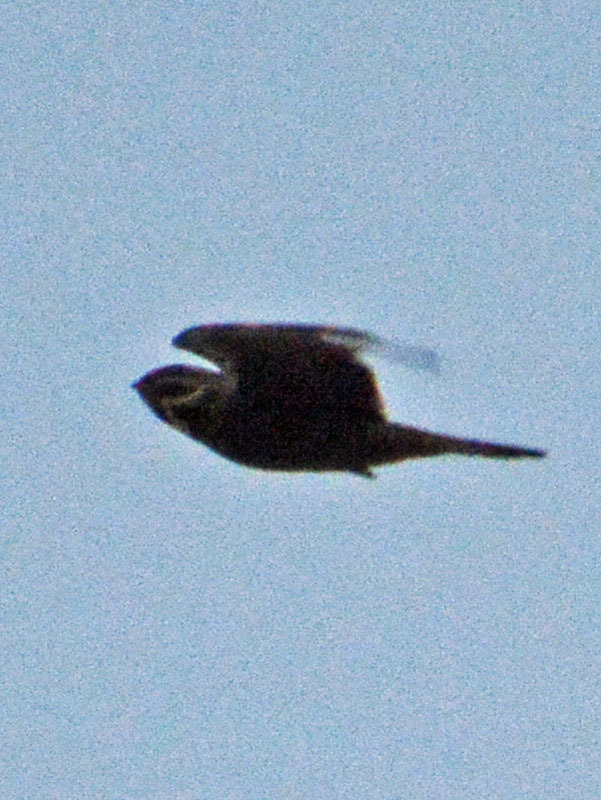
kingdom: Animalia
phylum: Chordata
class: Aves
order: Caprimulgiformes
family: Caprimulgidae
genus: Chordeiles
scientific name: Chordeiles acutipennis
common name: Lesser nighthawk
